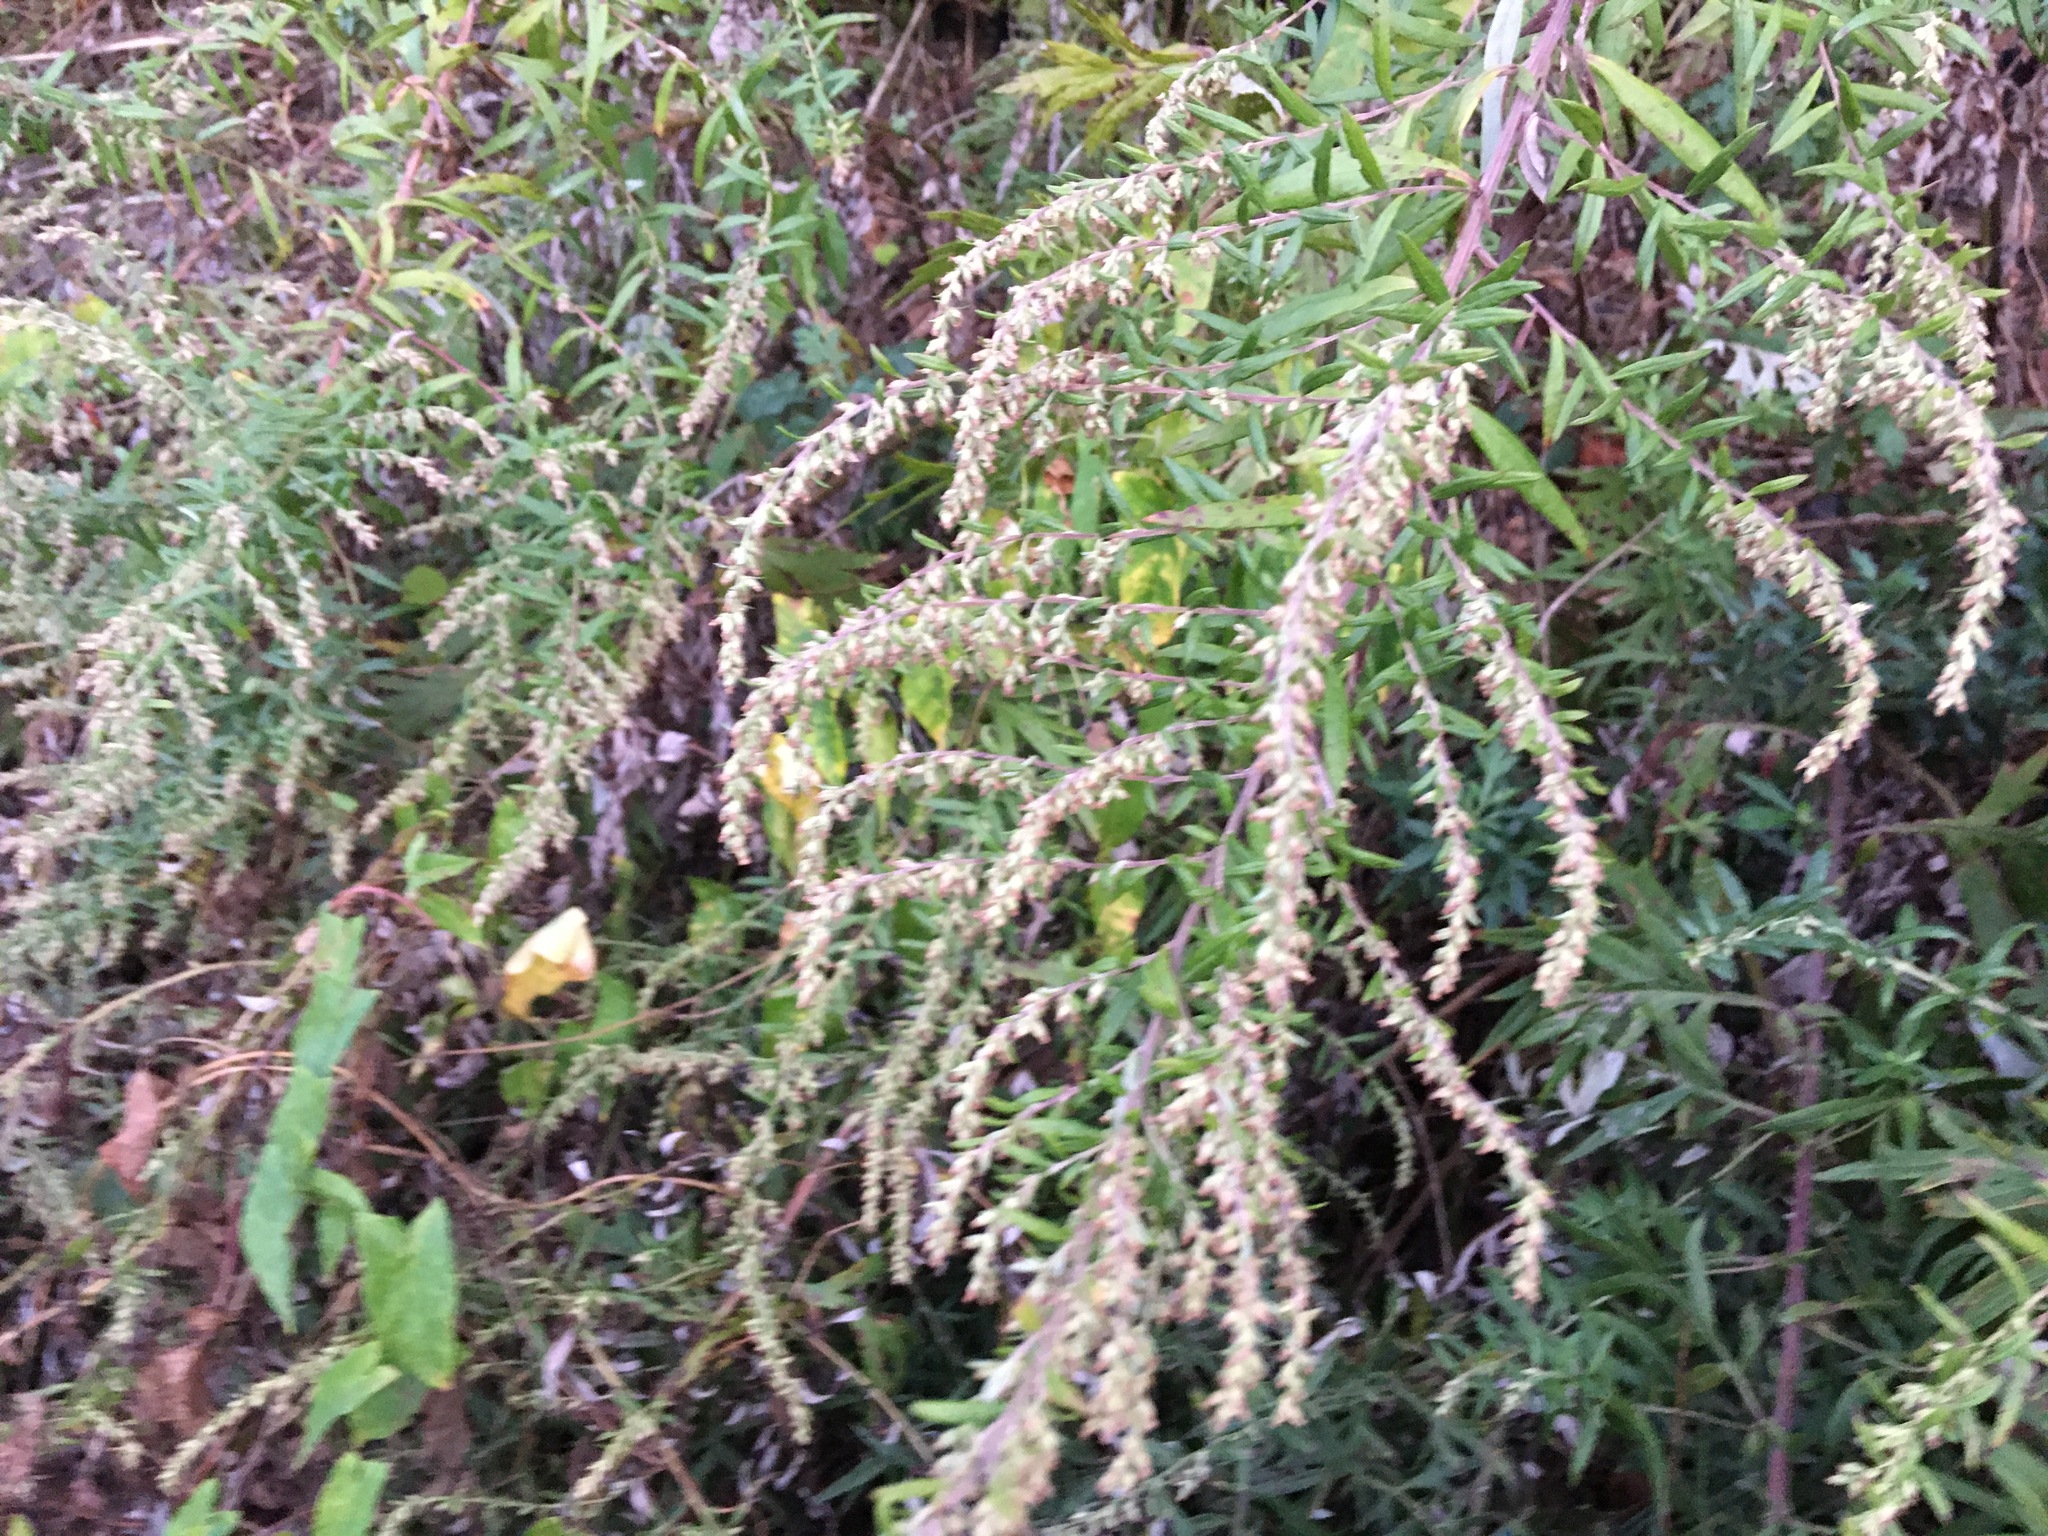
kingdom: Plantae
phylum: Tracheophyta
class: Magnoliopsida
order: Asterales
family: Asteraceae
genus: Artemisia
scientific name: Artemisia vulgaris
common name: Mugwort
